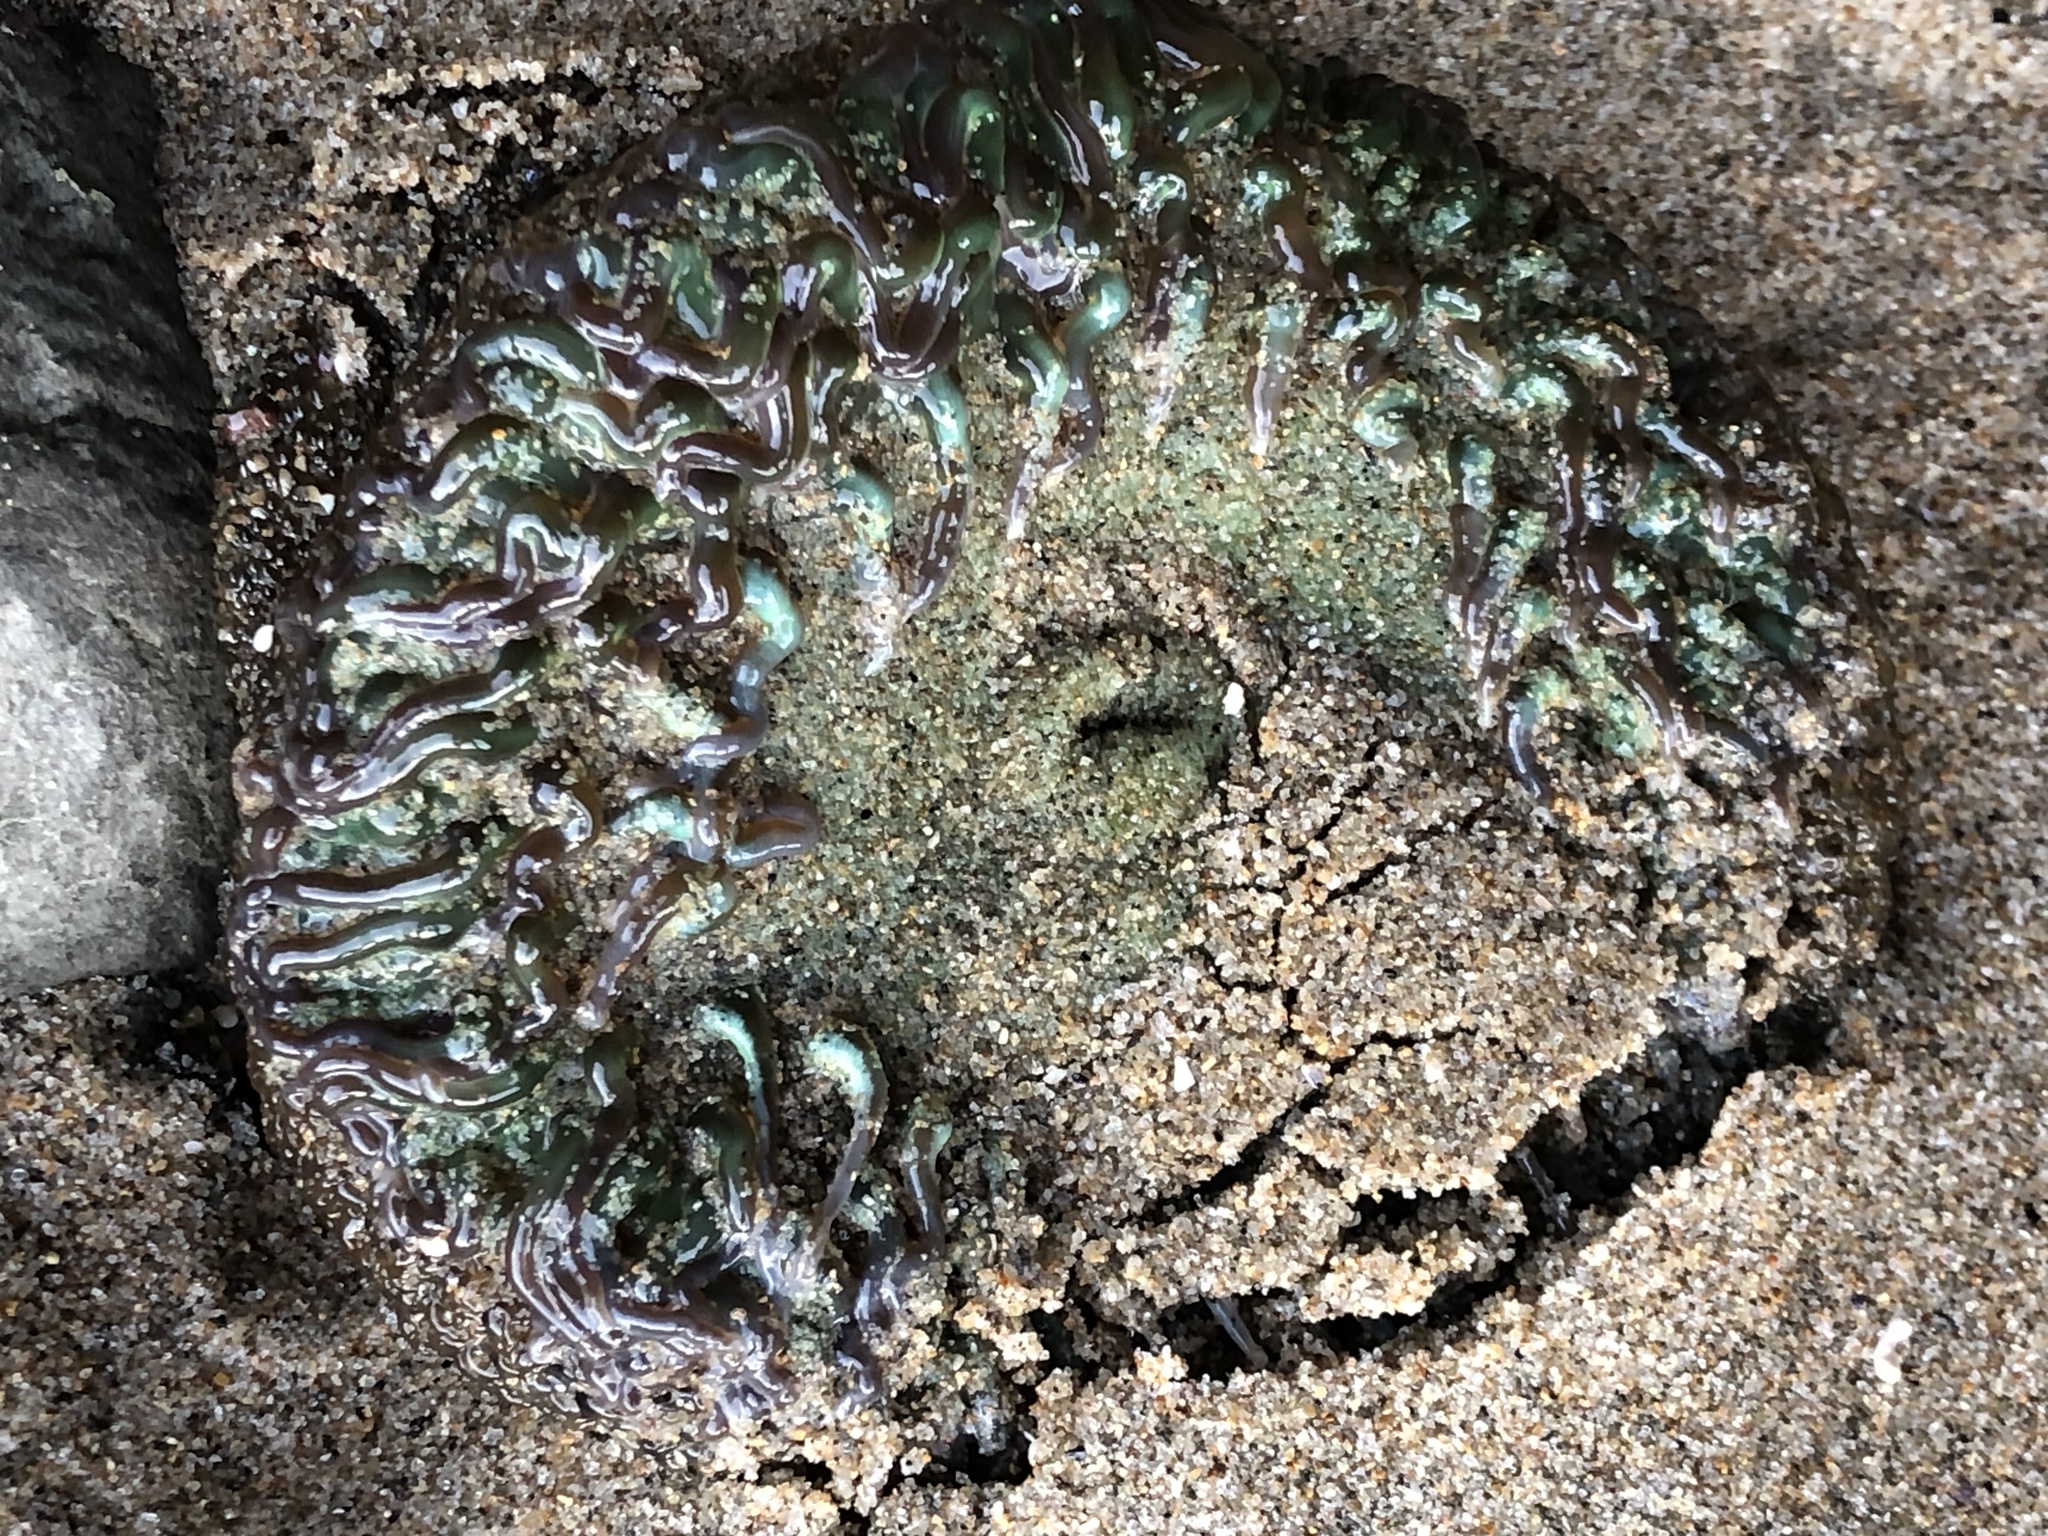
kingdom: Animalia
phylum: Cnidaria
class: Anthozoa
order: Actiniaria
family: Actiniidae
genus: Anthopleura
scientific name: Anthopleura xanthogrammica
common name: Giant green anemone
